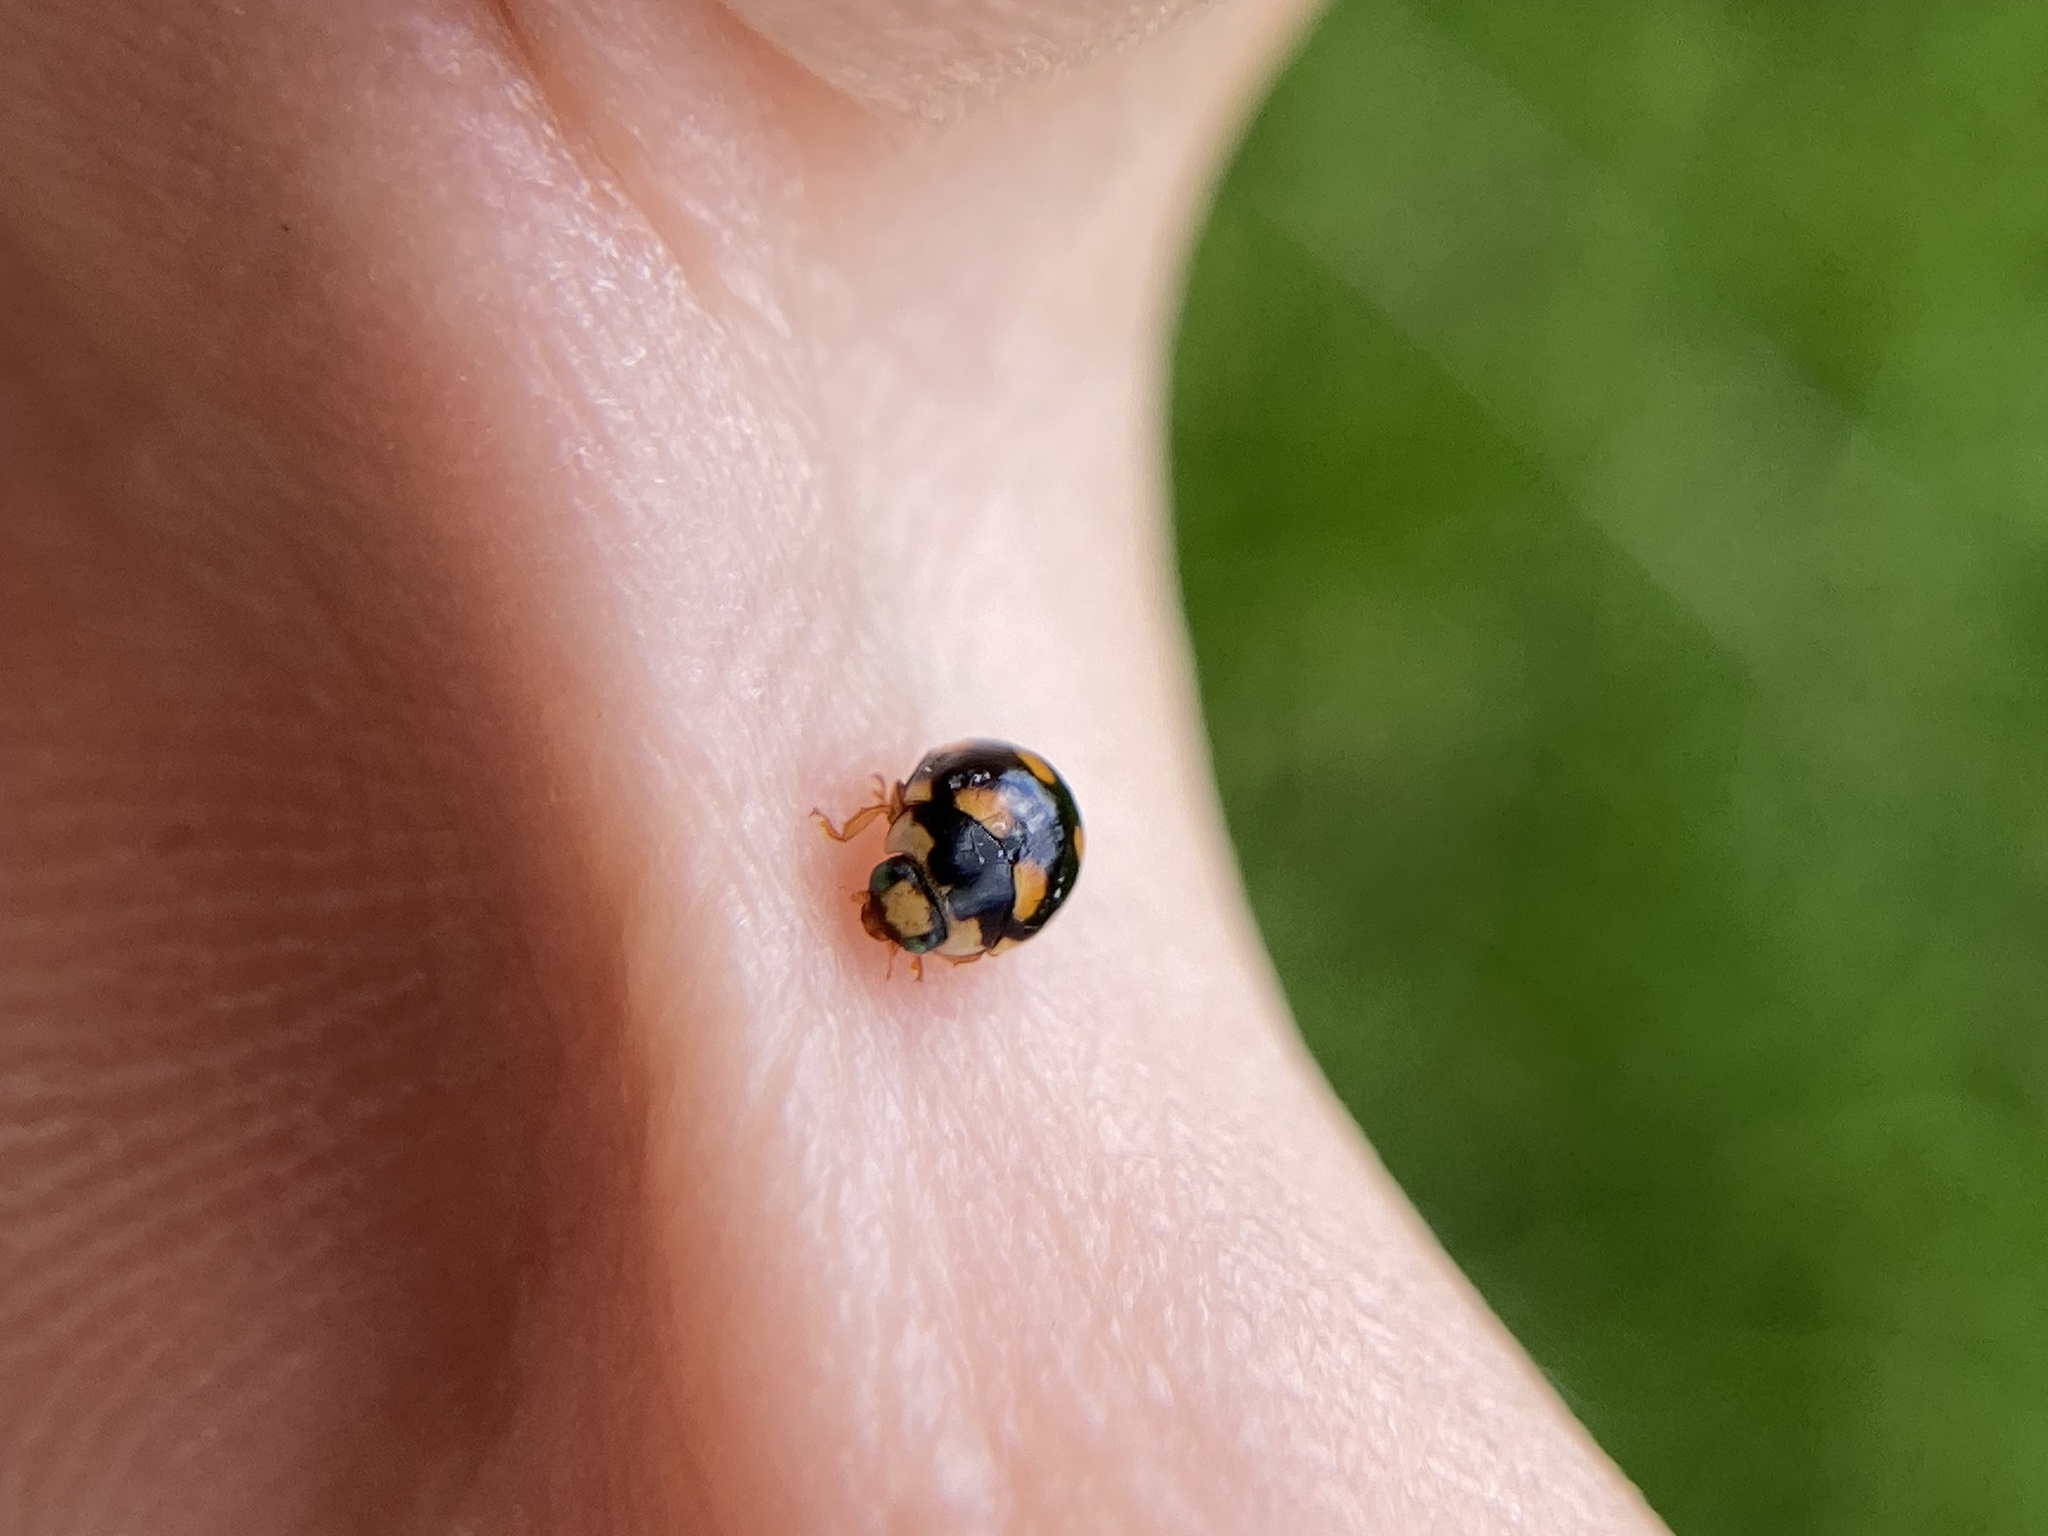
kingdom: Animalia
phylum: Arthropoda
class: Insecta
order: Coleoptera
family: Coccinellidae
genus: Brachiacantha
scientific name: Brachiacantha ursina
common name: Ursine spurleg lady beetle
